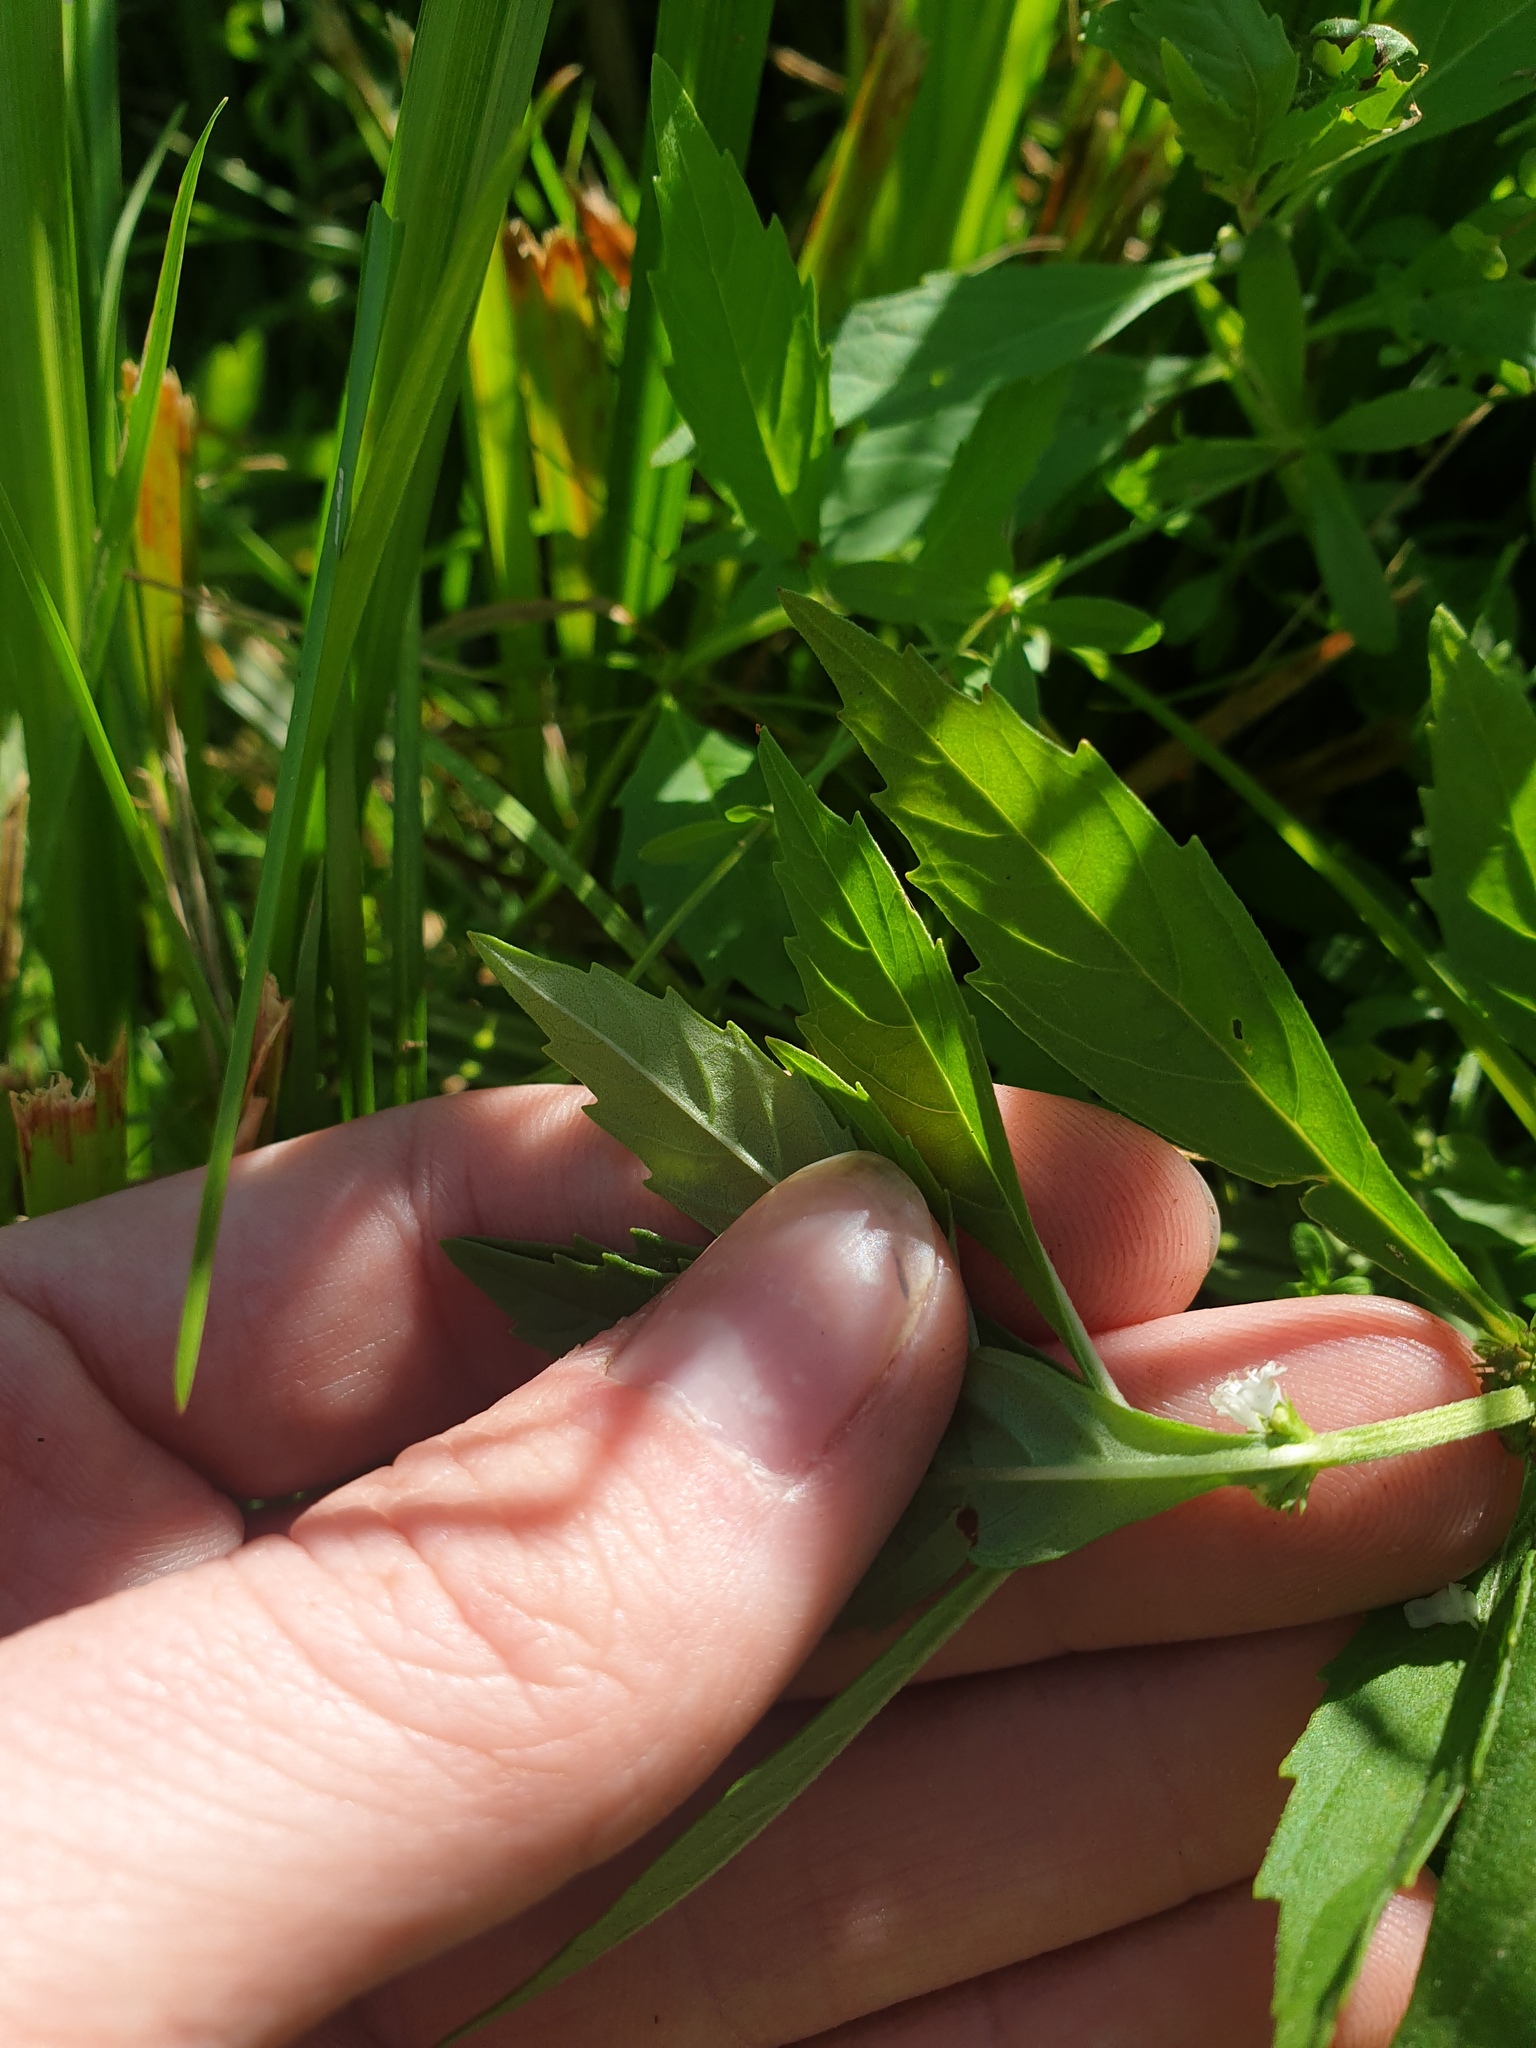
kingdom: Plantae
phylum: Tracheophyta
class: Magnoliopsida
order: Lamiales
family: Lamiaceae
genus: Lycopus
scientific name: Lycopus uniflorus
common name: Northern bugleweed
